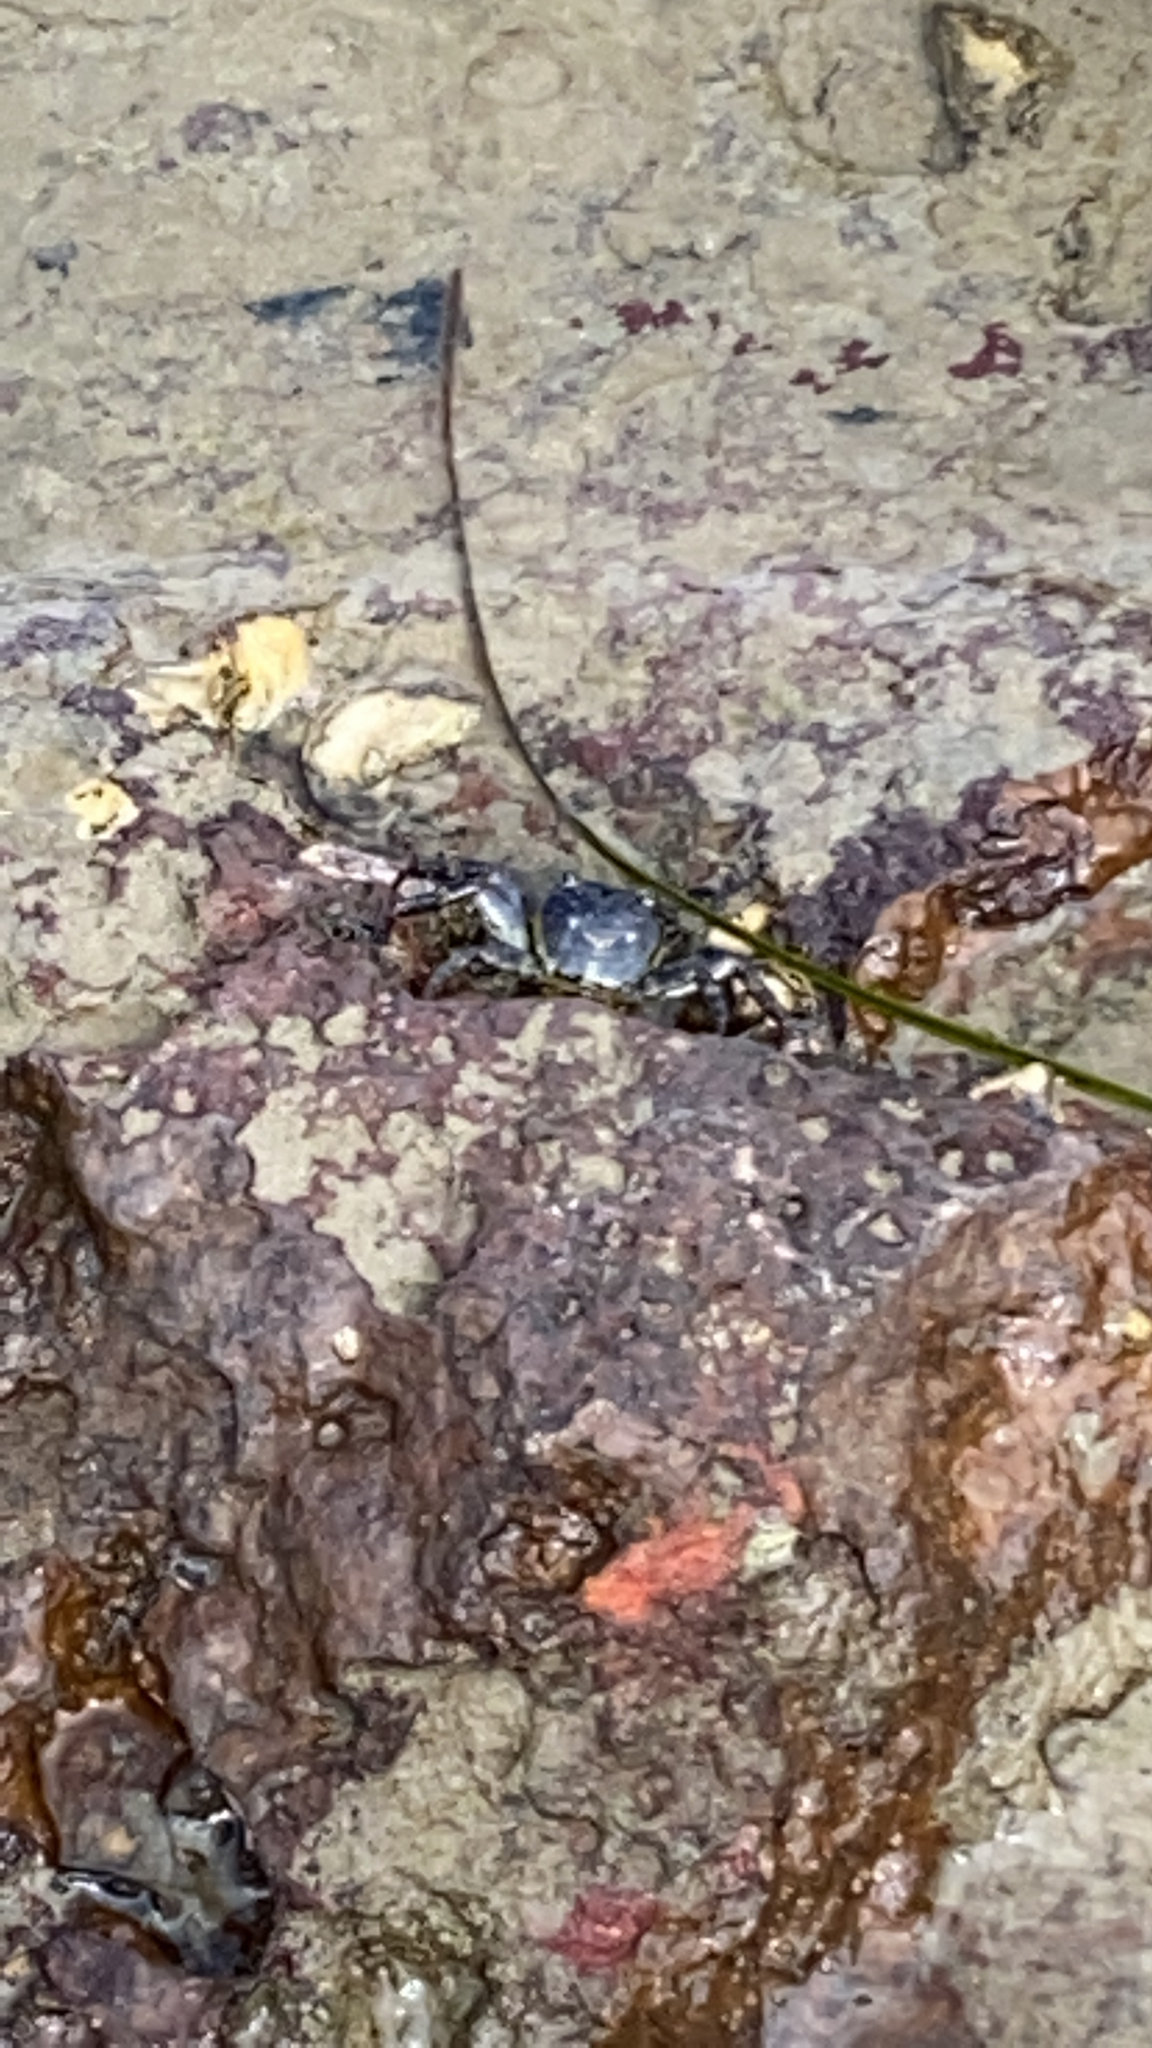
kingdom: Animalia
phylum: Arthropoda
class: Malacostraca
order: Decapoda
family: Grapsidae
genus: Leptograpsus
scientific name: Leptograpsus variegatus
